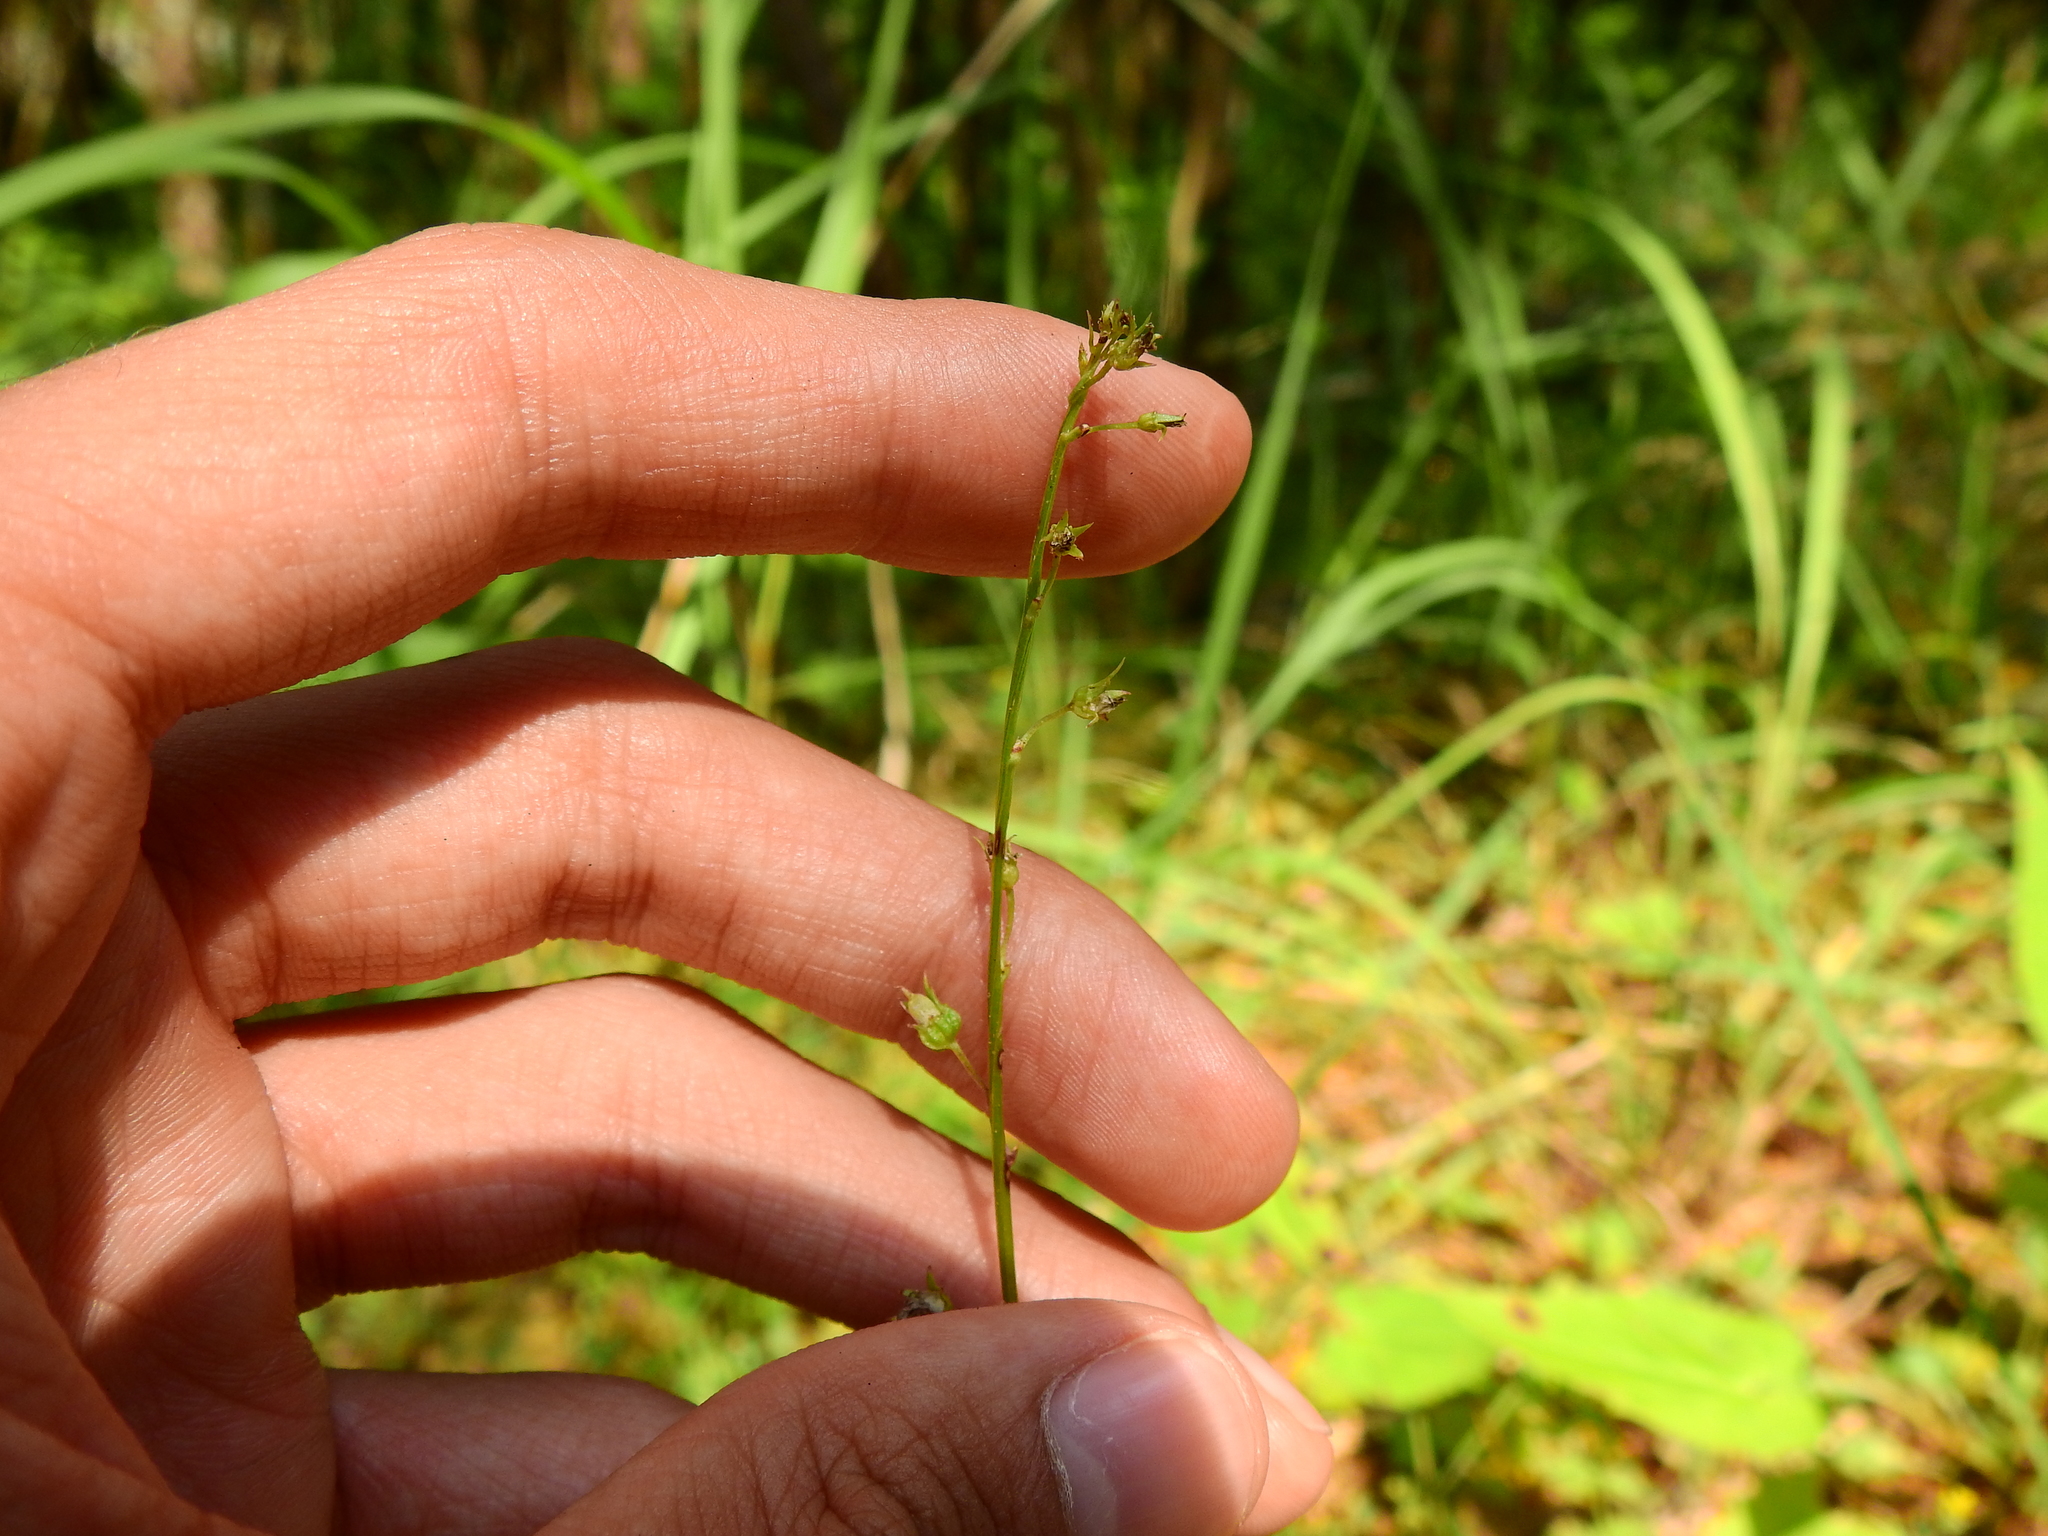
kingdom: Plantae
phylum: Tracheophyta
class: Magnoliopsida
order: Asterales
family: Campanulaceae
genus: Lobelia
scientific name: Lobelia spicata
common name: Pale-spike lobelia
